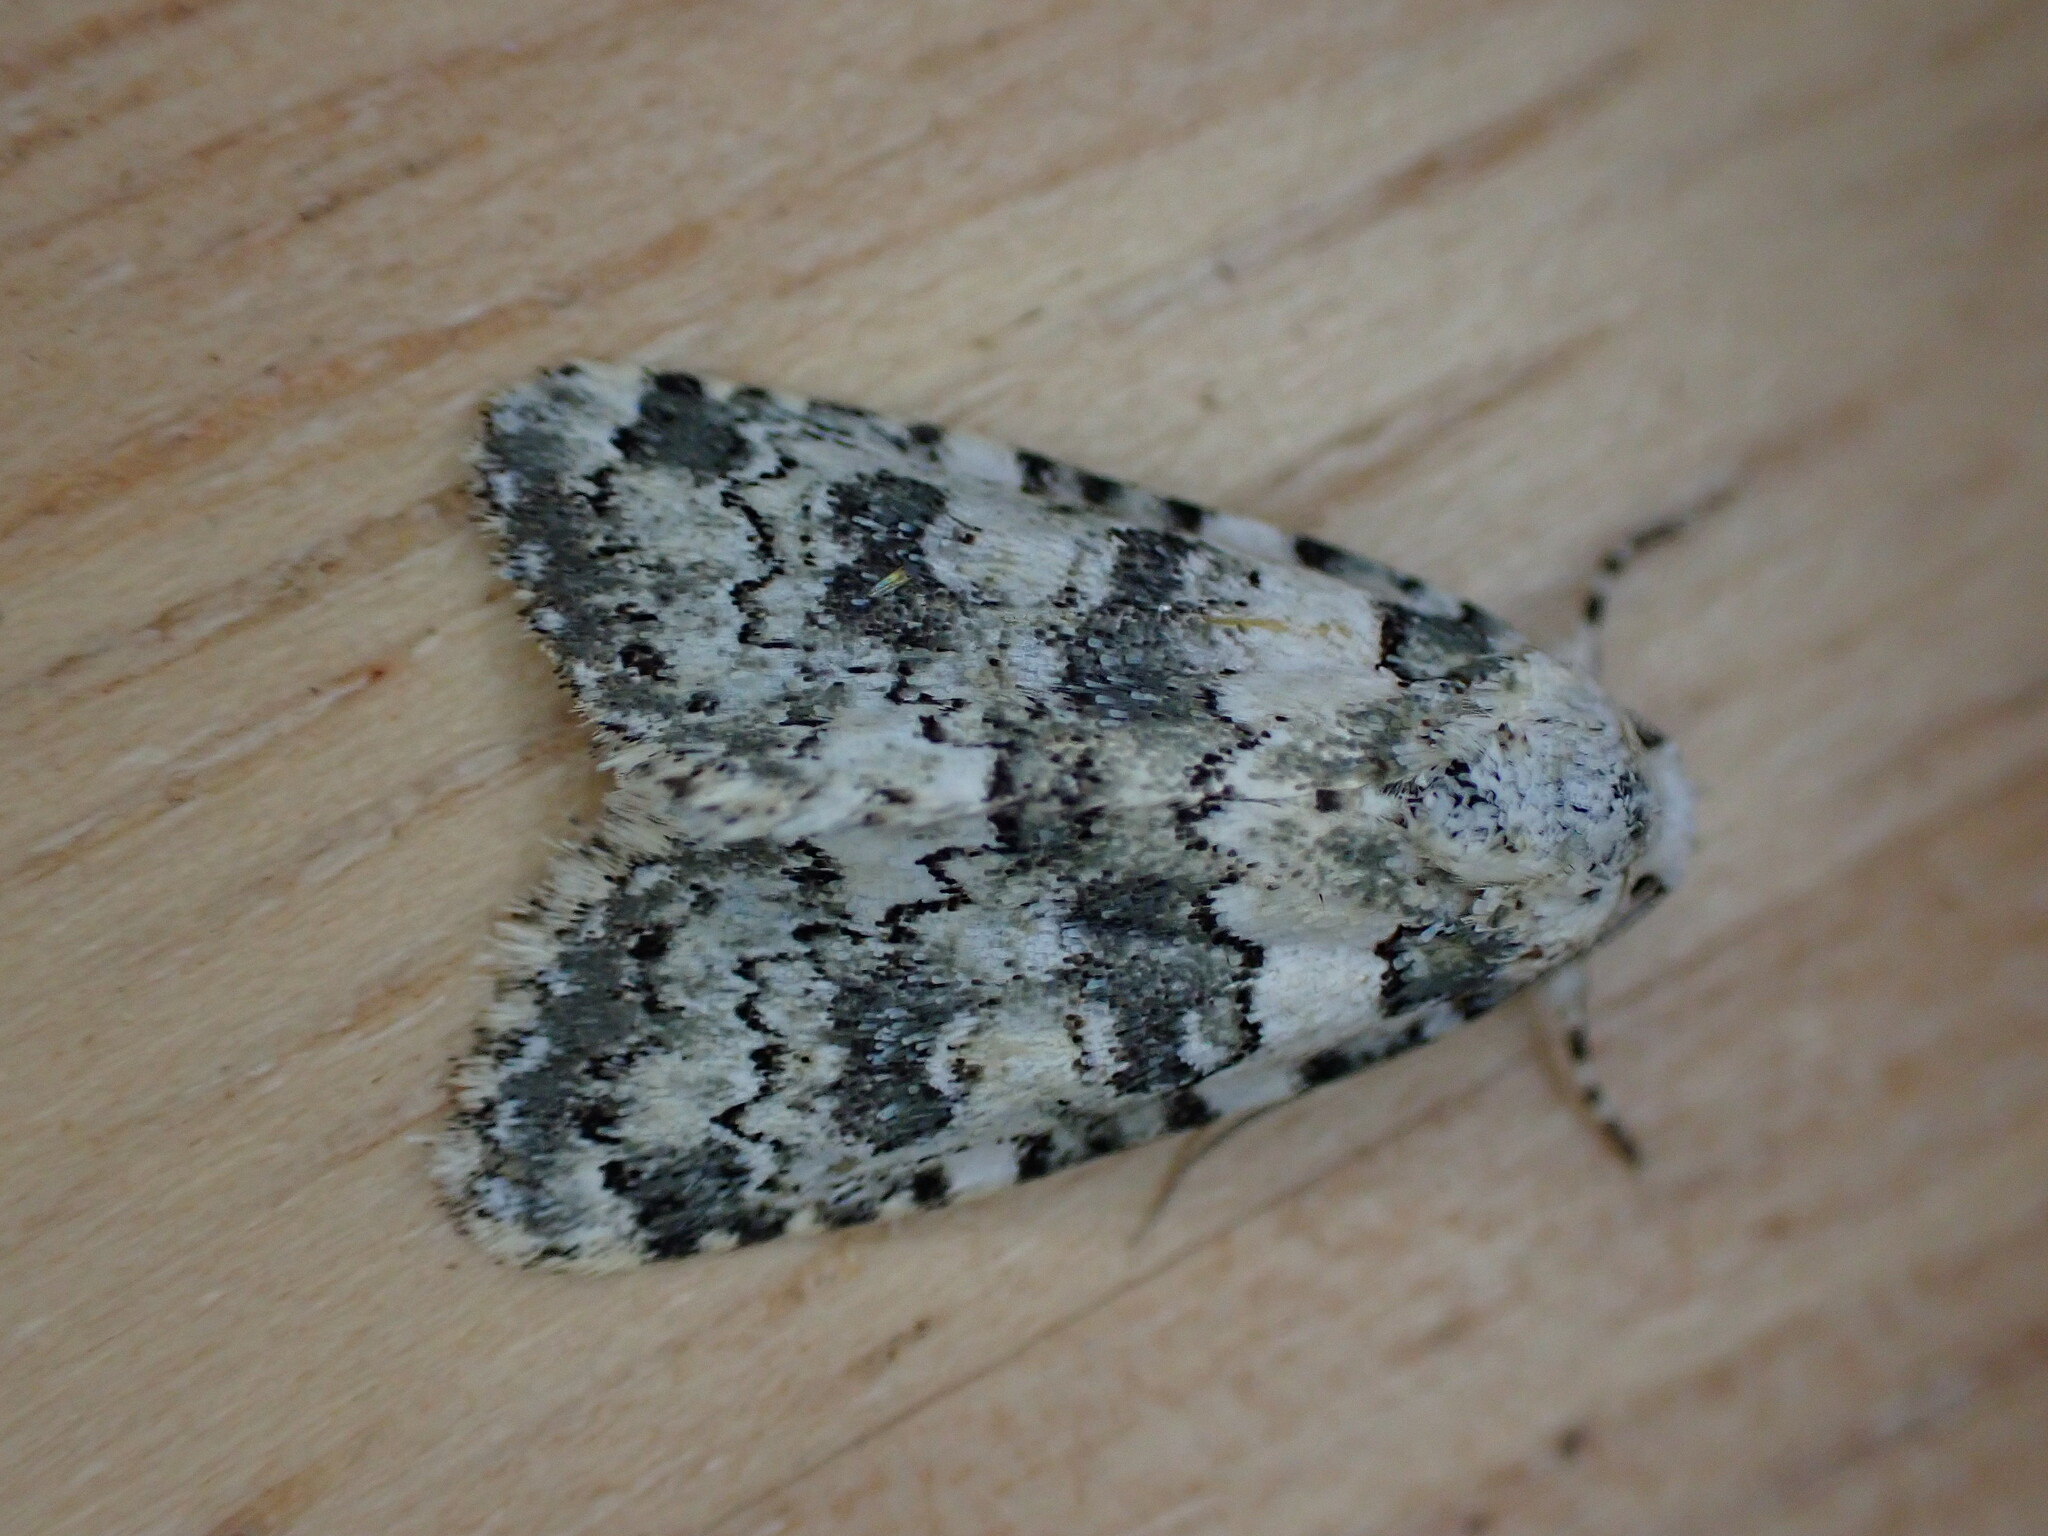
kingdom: Animalia
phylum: Arthropoda
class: Insecta
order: Lepidoptera
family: Noctuidae
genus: Bryophila
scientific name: Bryophila domestica
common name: Marbled beauty
